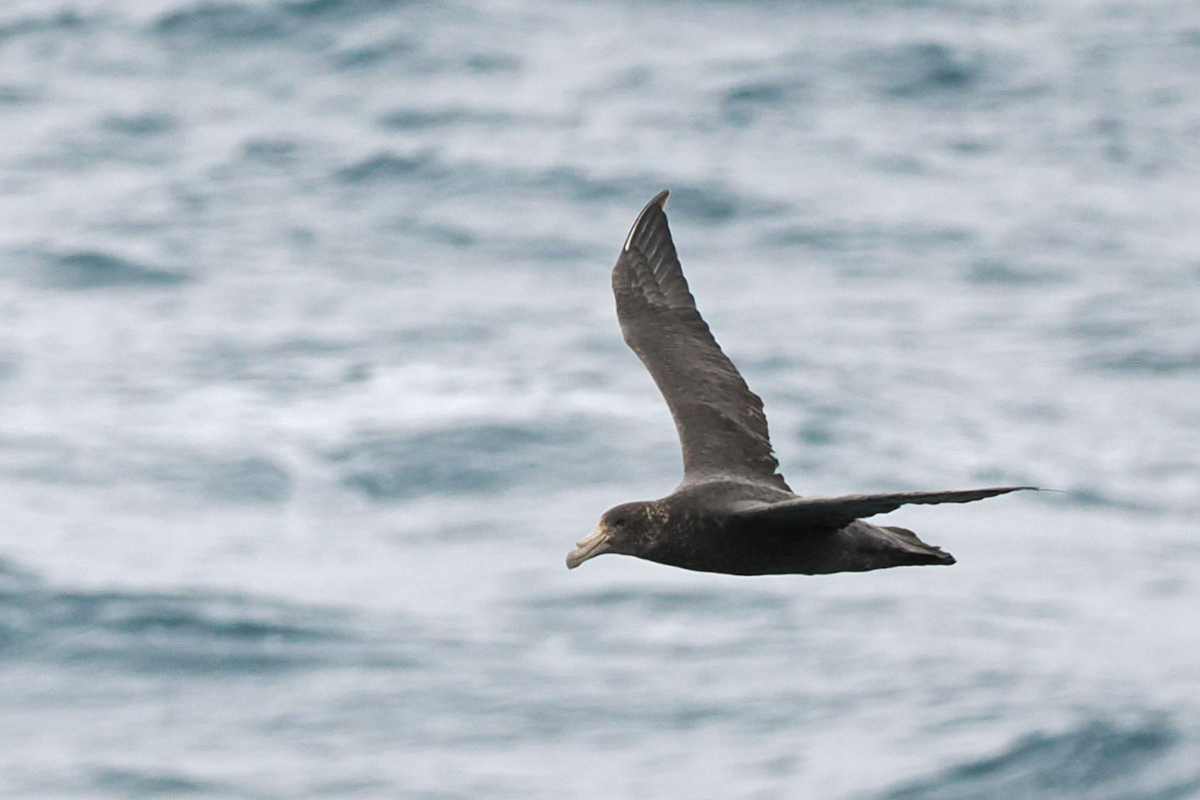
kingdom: Animalia
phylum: Chordata
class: Aves
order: Procellariiformes
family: Procellariidae
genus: Macronectes
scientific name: Macronectes giganteus
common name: Southern giant petrel
